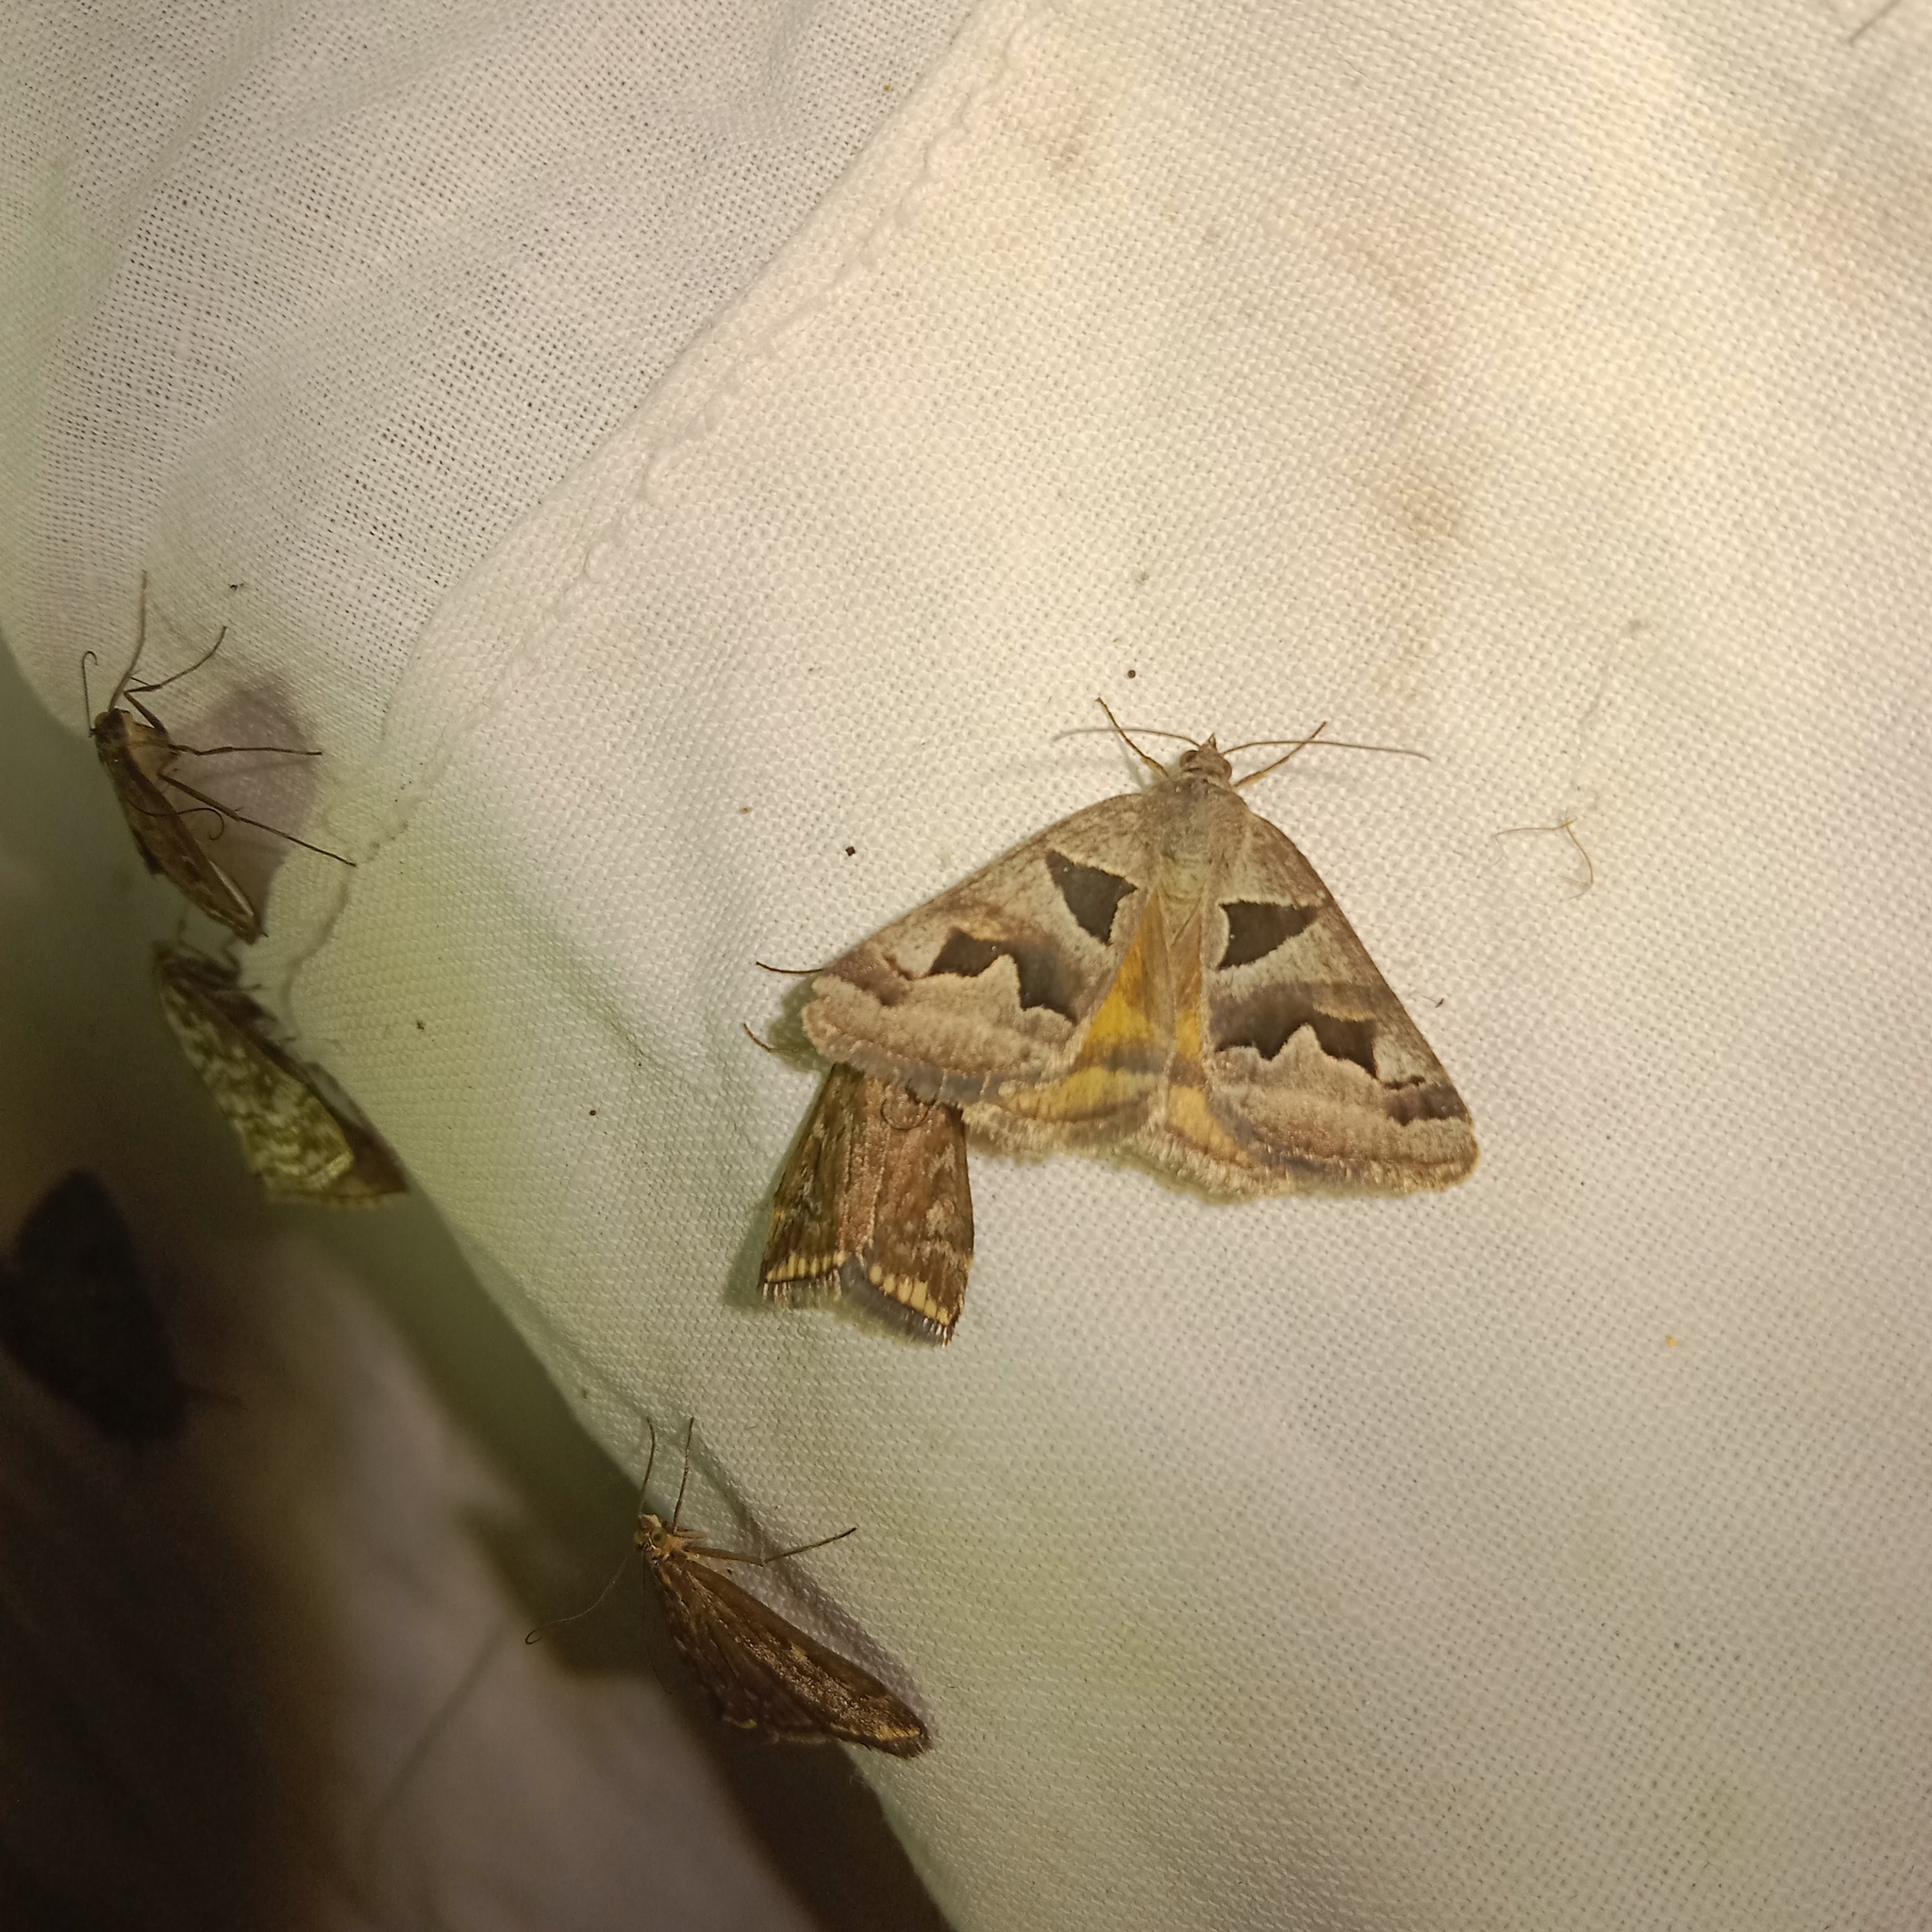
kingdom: Animalia
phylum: Arthropoda
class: Insecta
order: Lepidoptera
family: Erebidae
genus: Euclidia
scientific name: Euclidia triquetra
